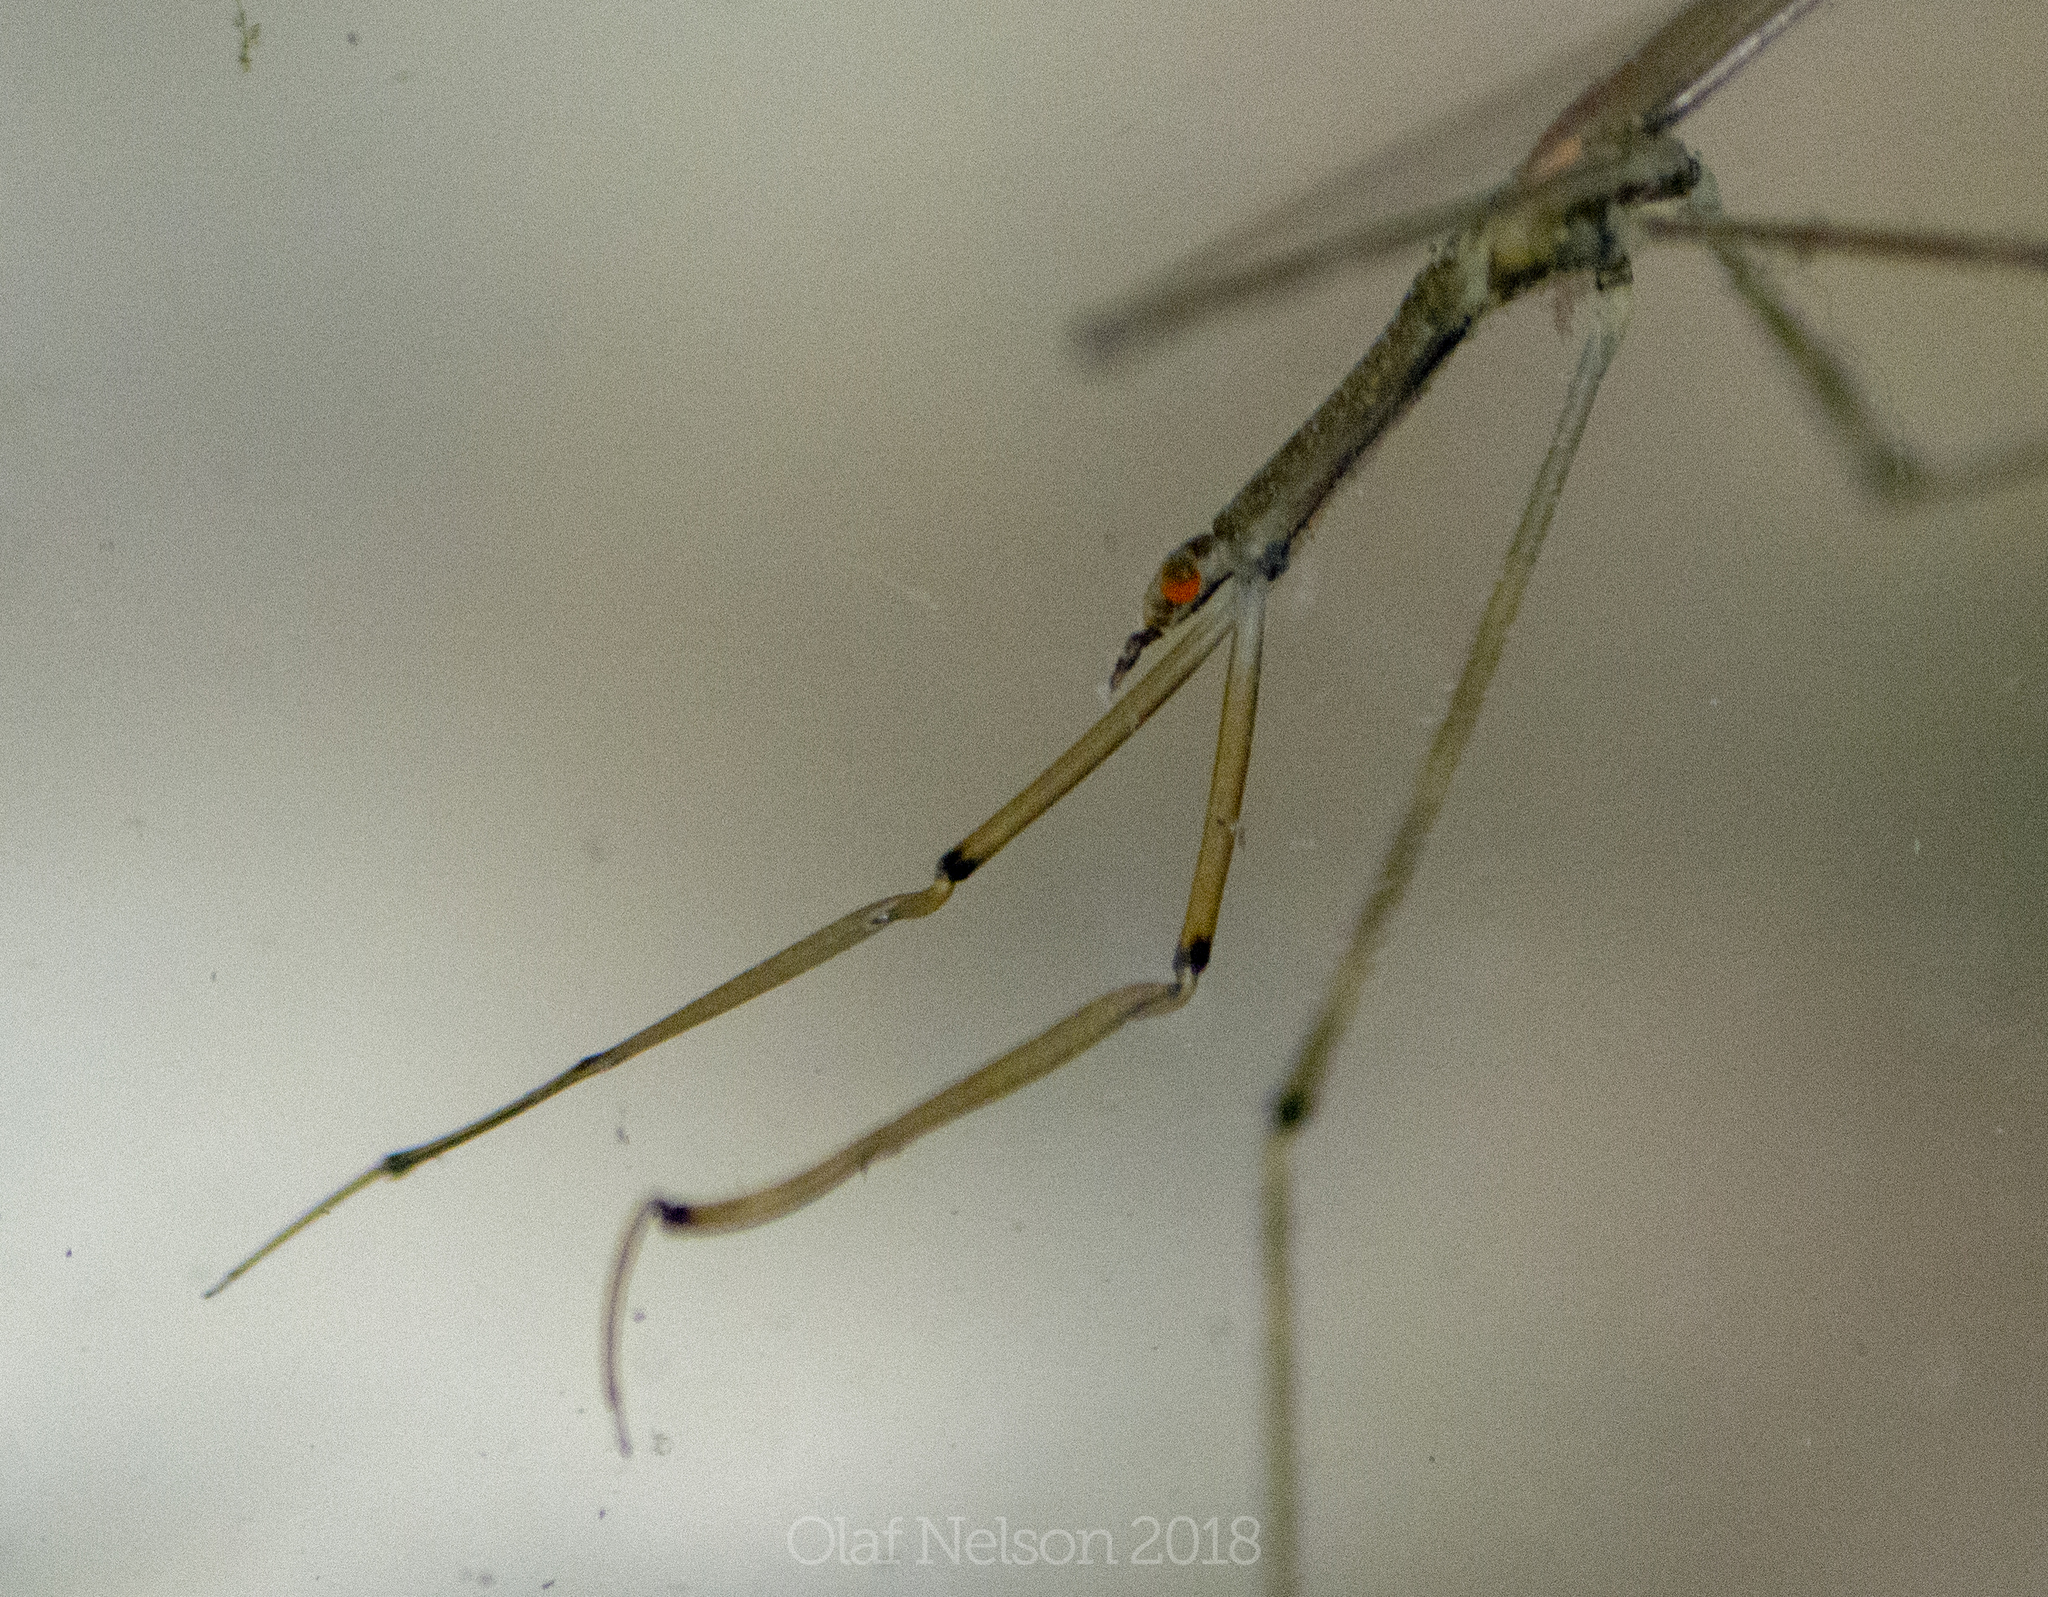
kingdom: Animalia
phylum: Arthropoda
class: Insecta
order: Hemiptera
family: Nepidae
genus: Ranatra
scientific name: Ranatra
